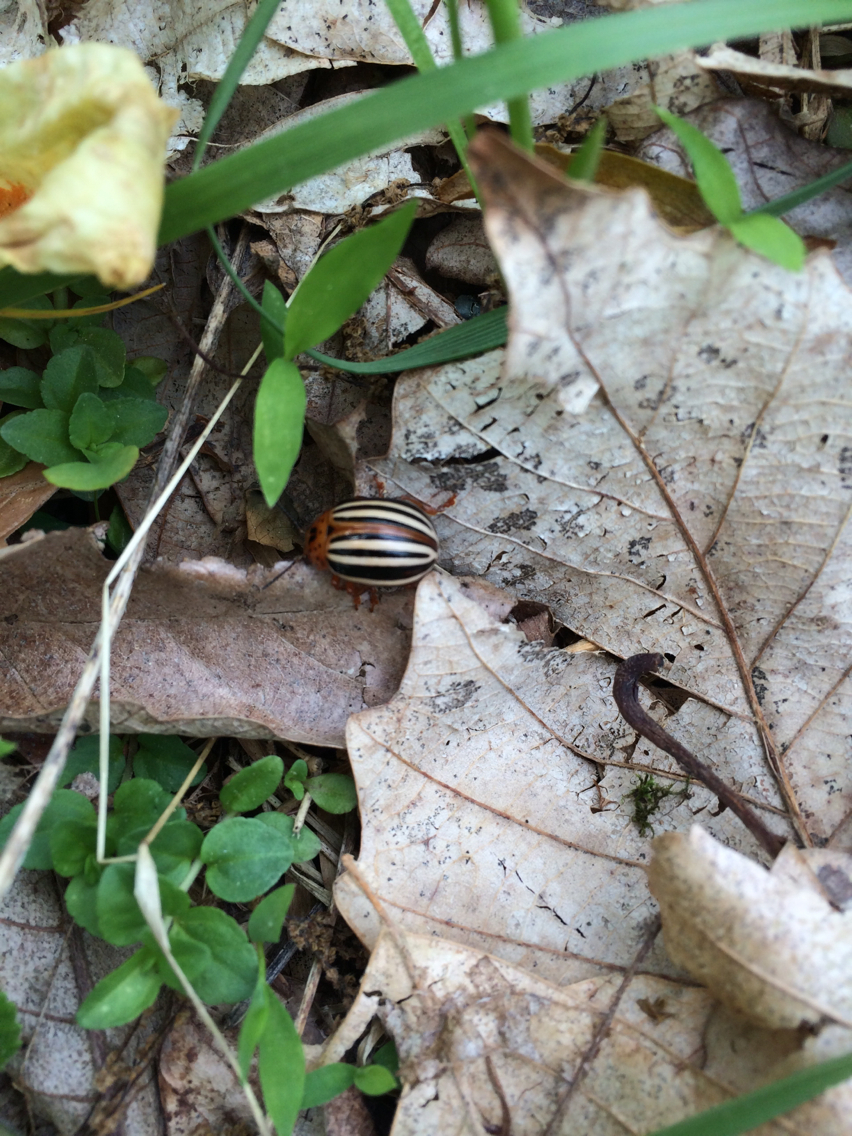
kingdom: Animalia
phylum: Arthropoda
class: Insecta
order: Coleoptera
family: Chrysomelidae
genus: Leptinotarsa
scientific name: Leptinotarsa juncta
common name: False potato beetle
